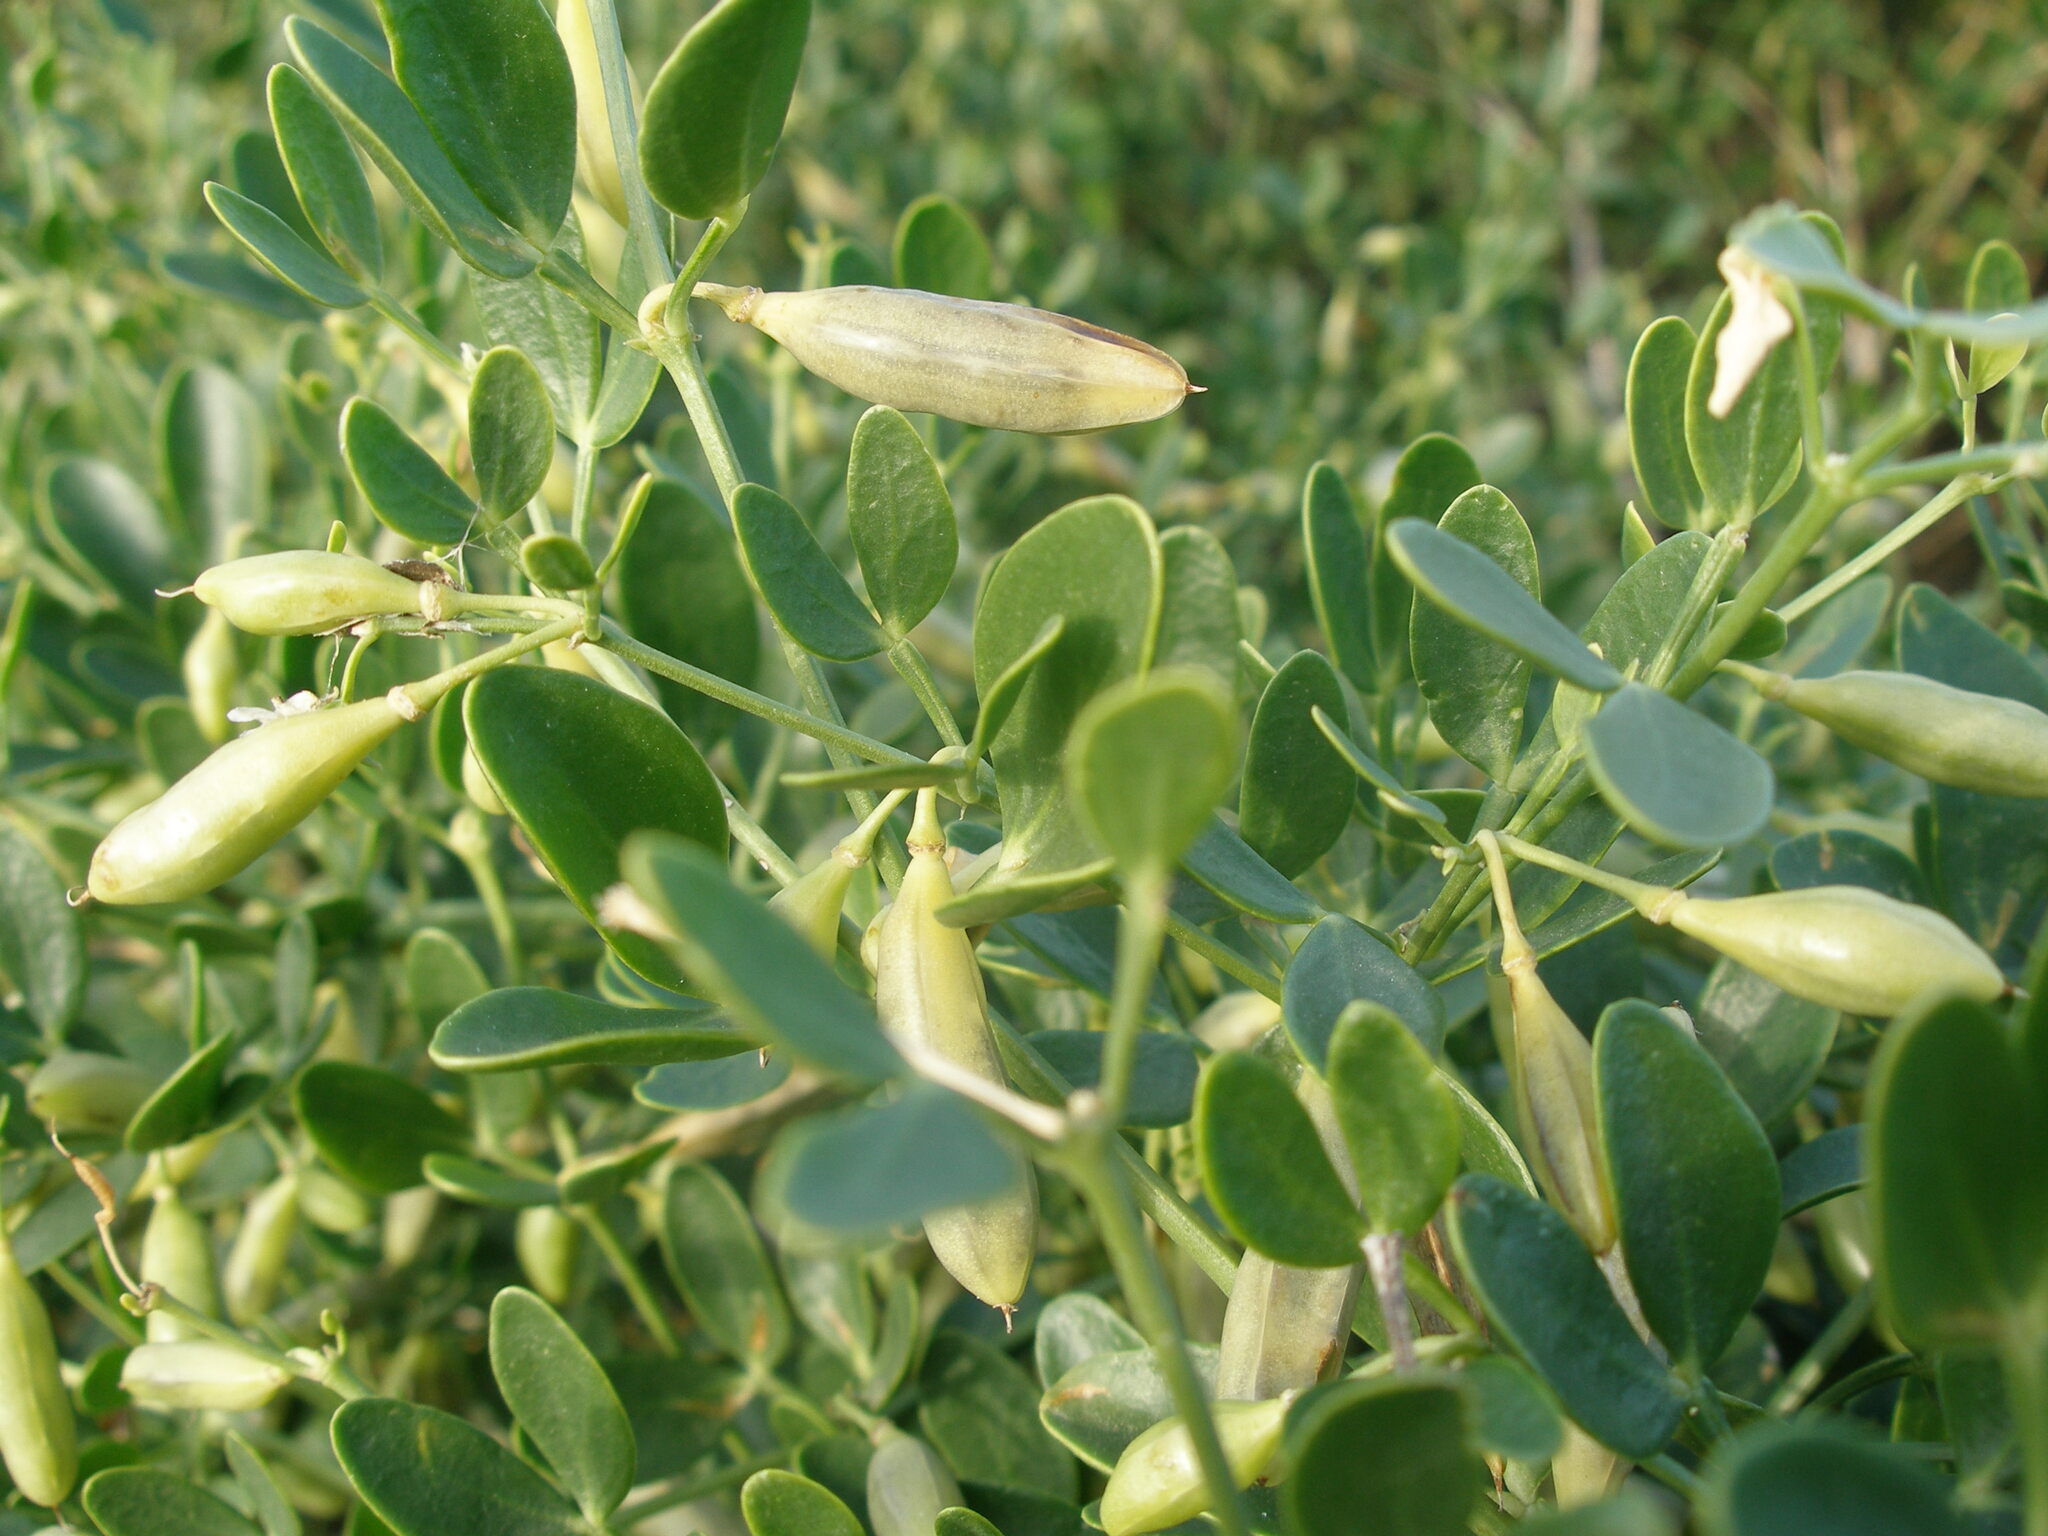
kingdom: Plantae
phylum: Tracheophyta
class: Magnoliopsida
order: Zygophyllales
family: Zygophyllaceae
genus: Zygophyllum
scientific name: Zygophyllum fabago
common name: Syrian beancaper
